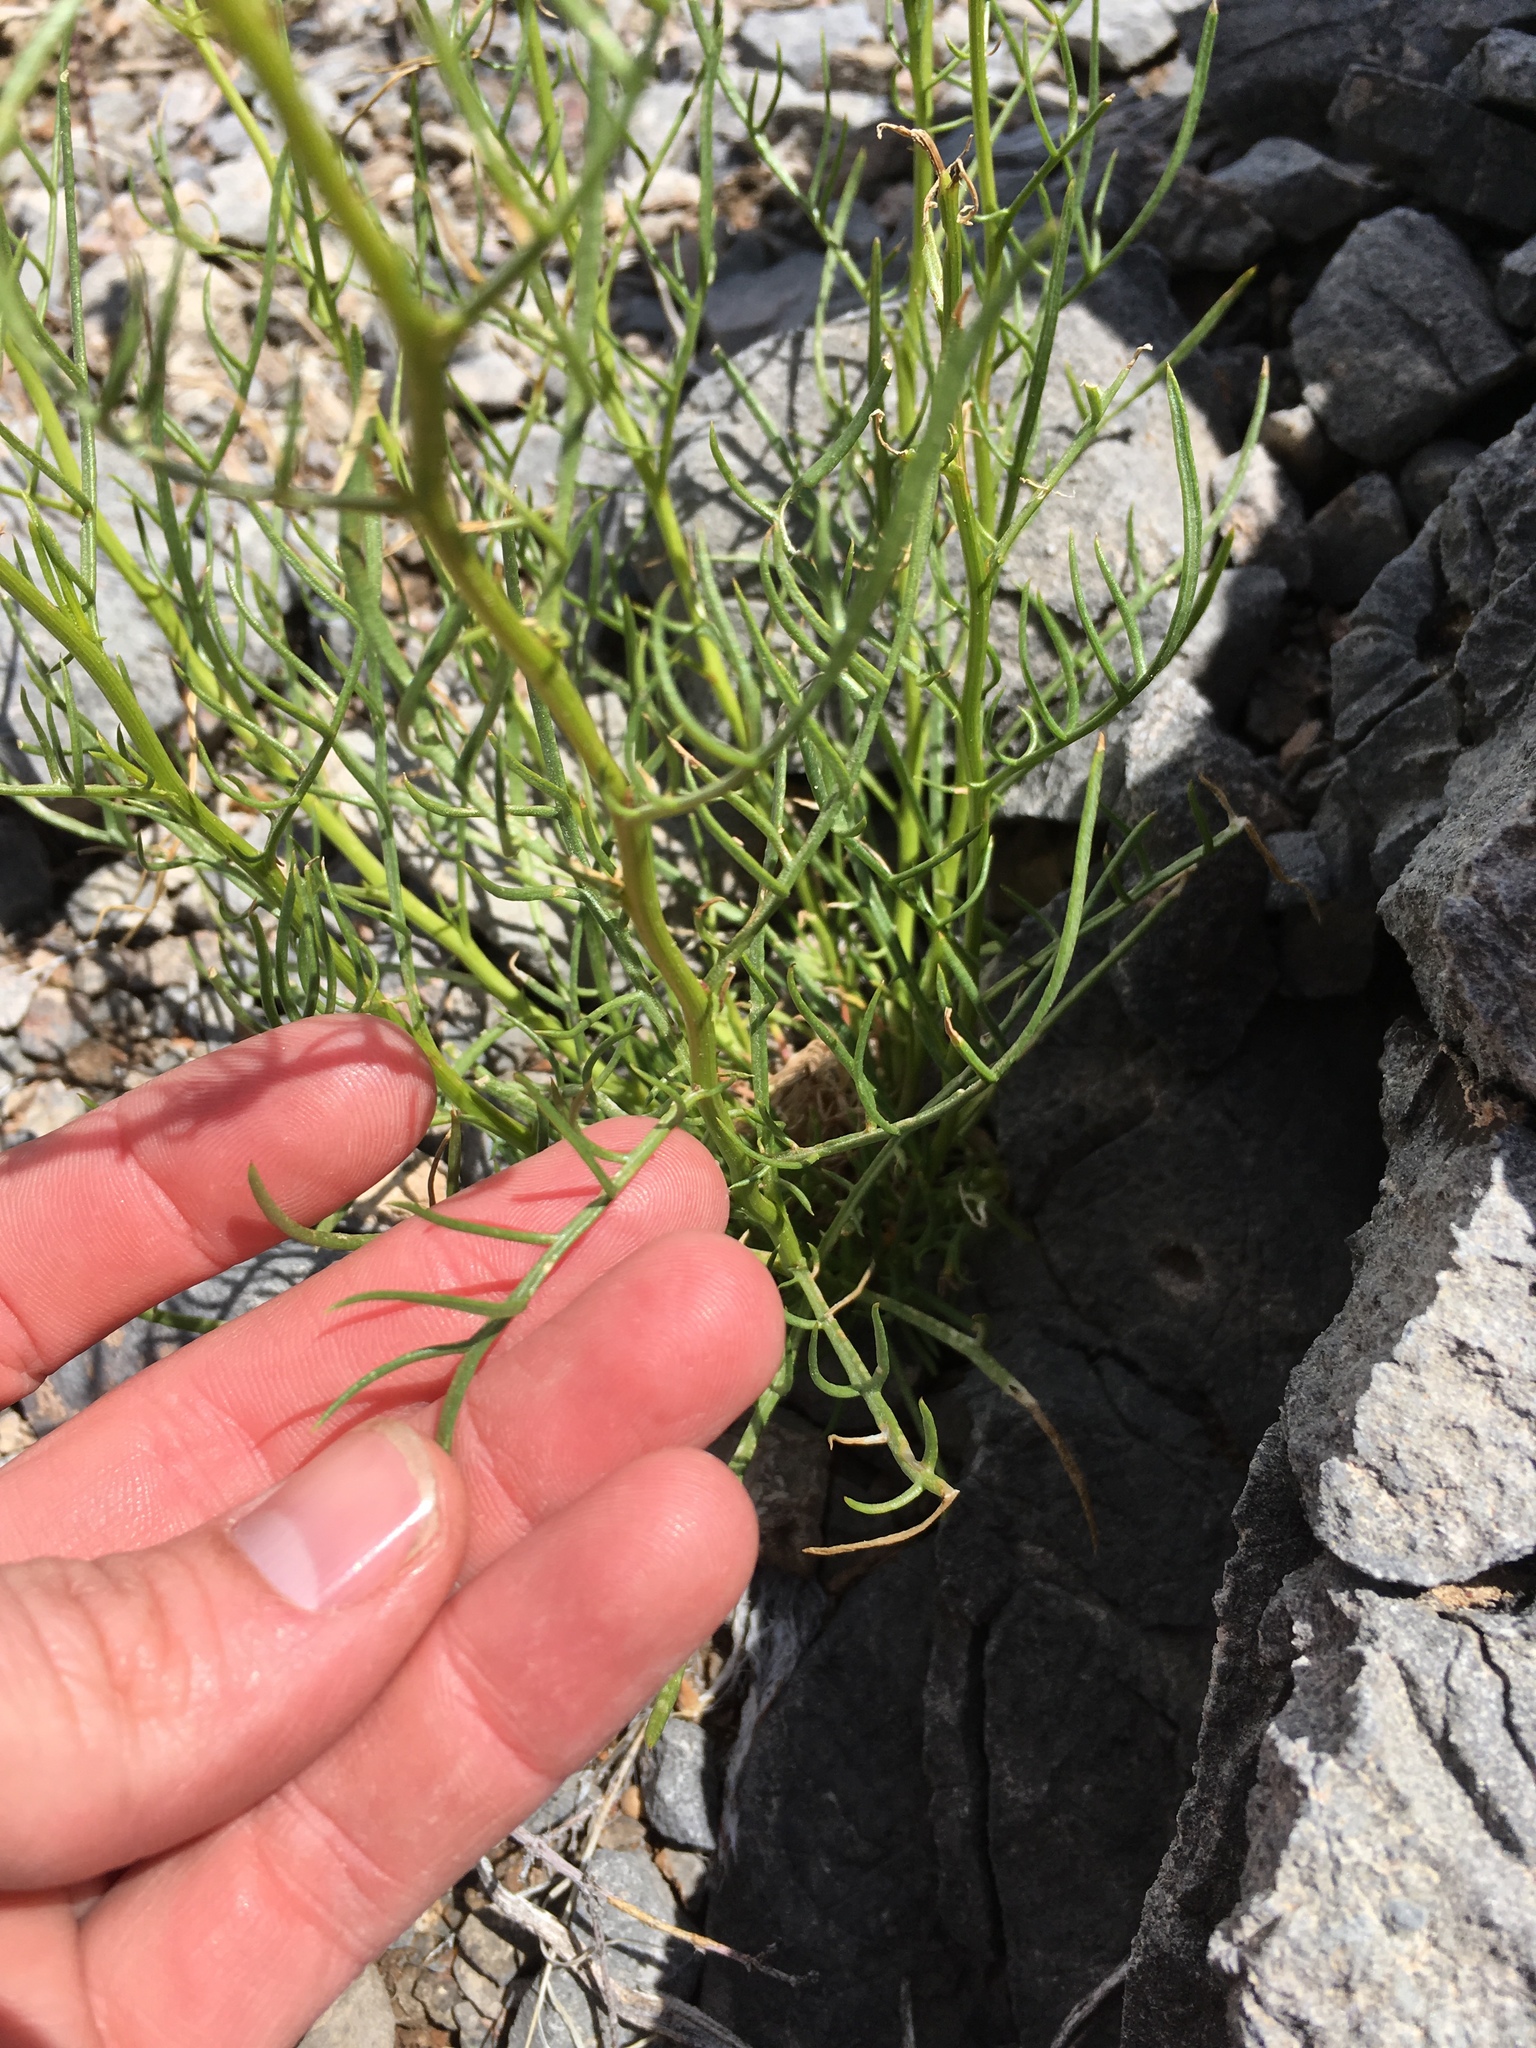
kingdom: Plantae
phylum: Tracheophyta
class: Magnoliopsida
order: Asterales
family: Asteraceae
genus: Senecio
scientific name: Senecio flaccidus
